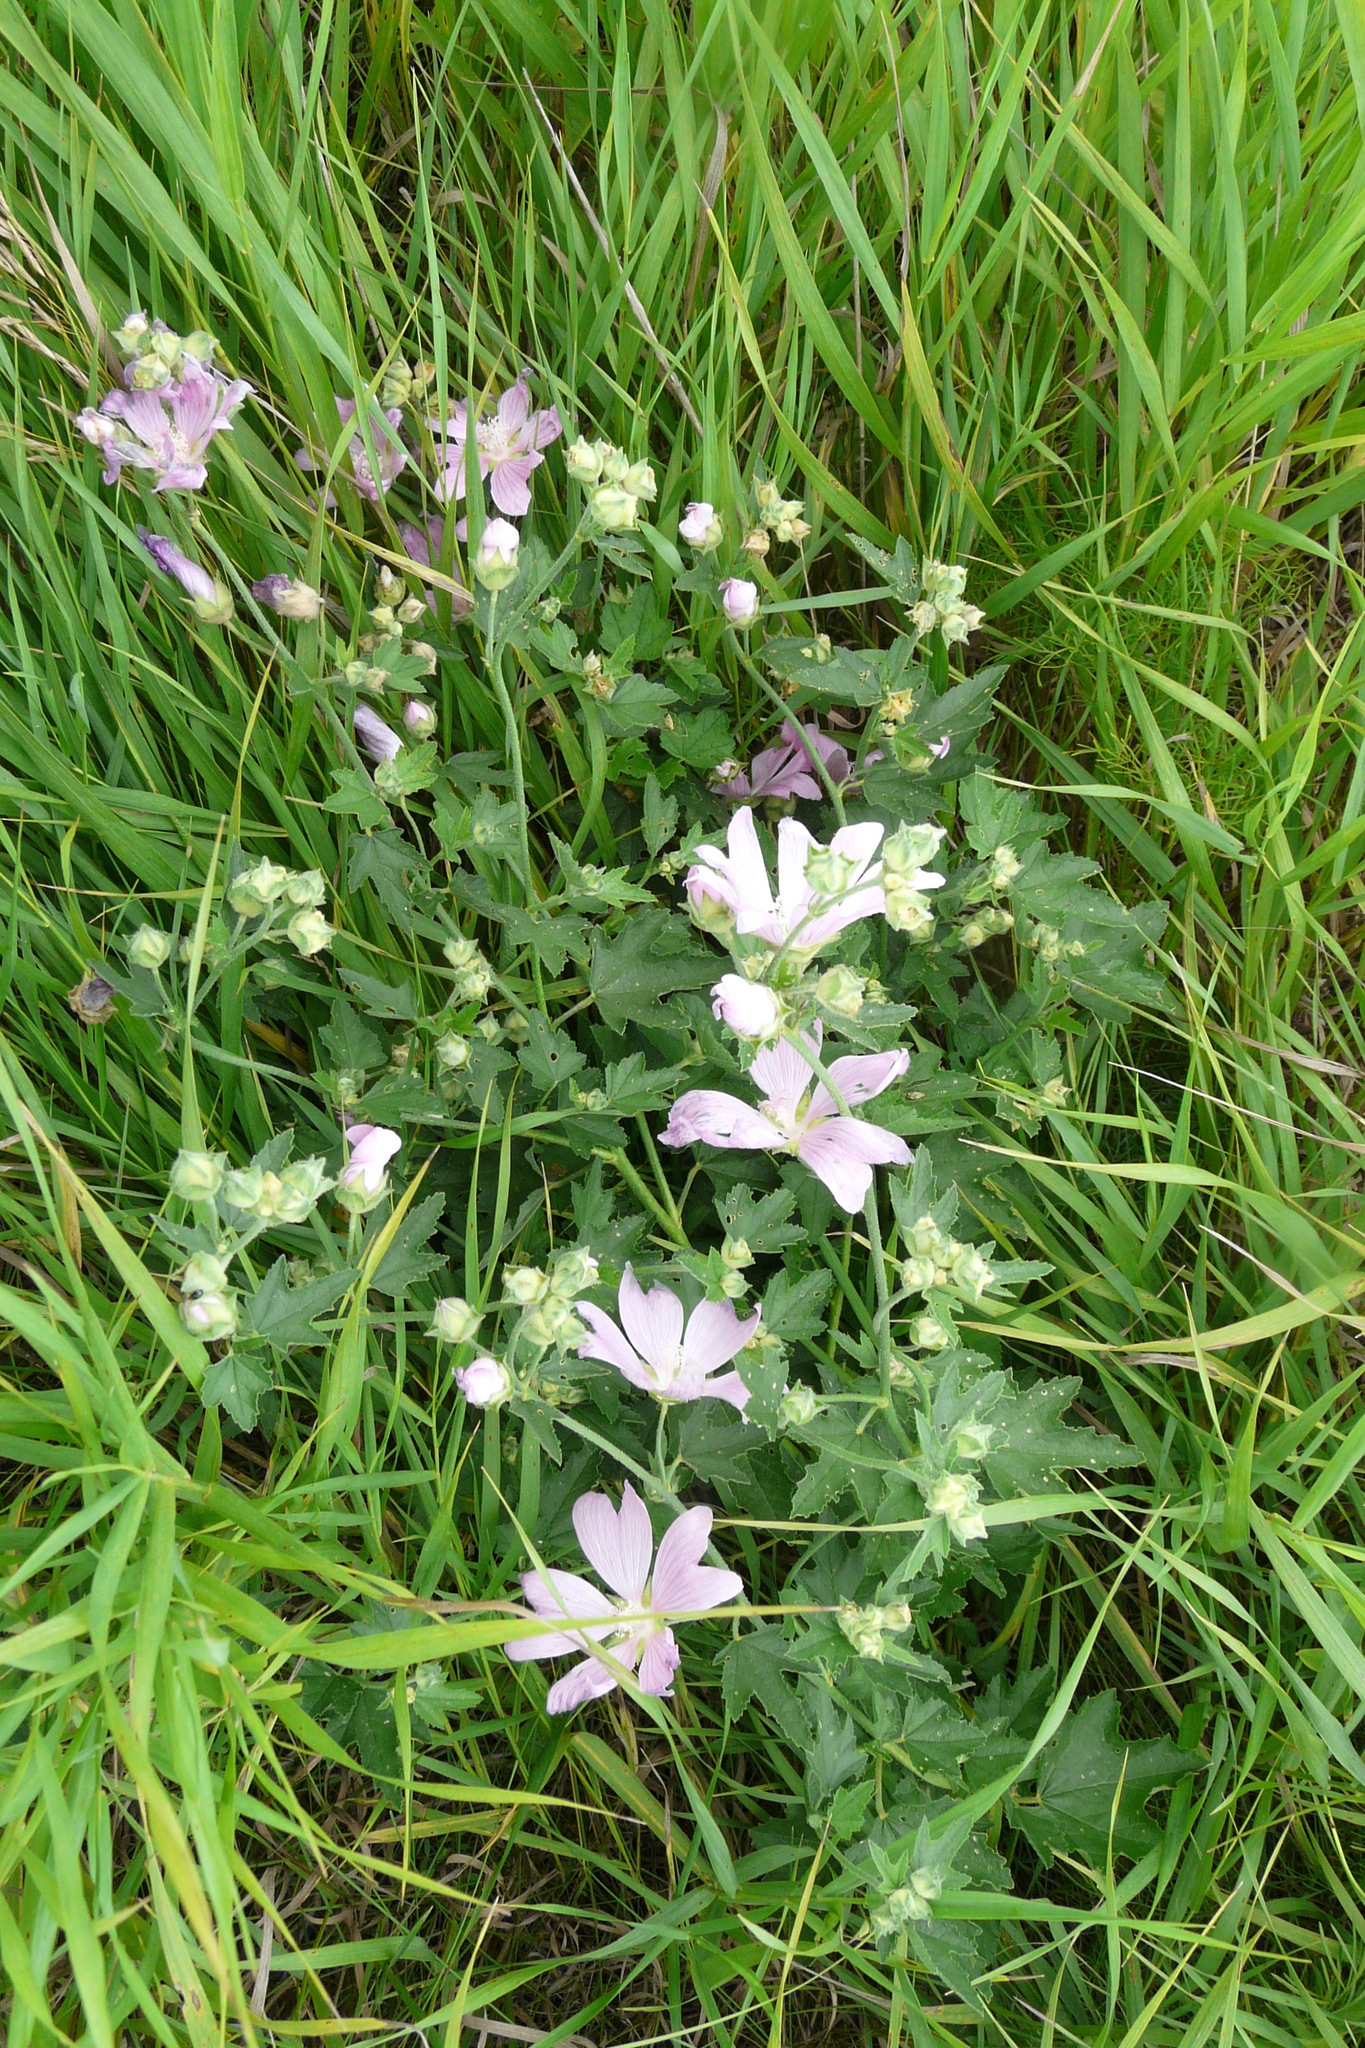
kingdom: Plantae
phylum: Tracheophyta
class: Magnoliopsida
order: Malvales
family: Malvaceae
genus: Malva
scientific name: Malva thuringiaca
